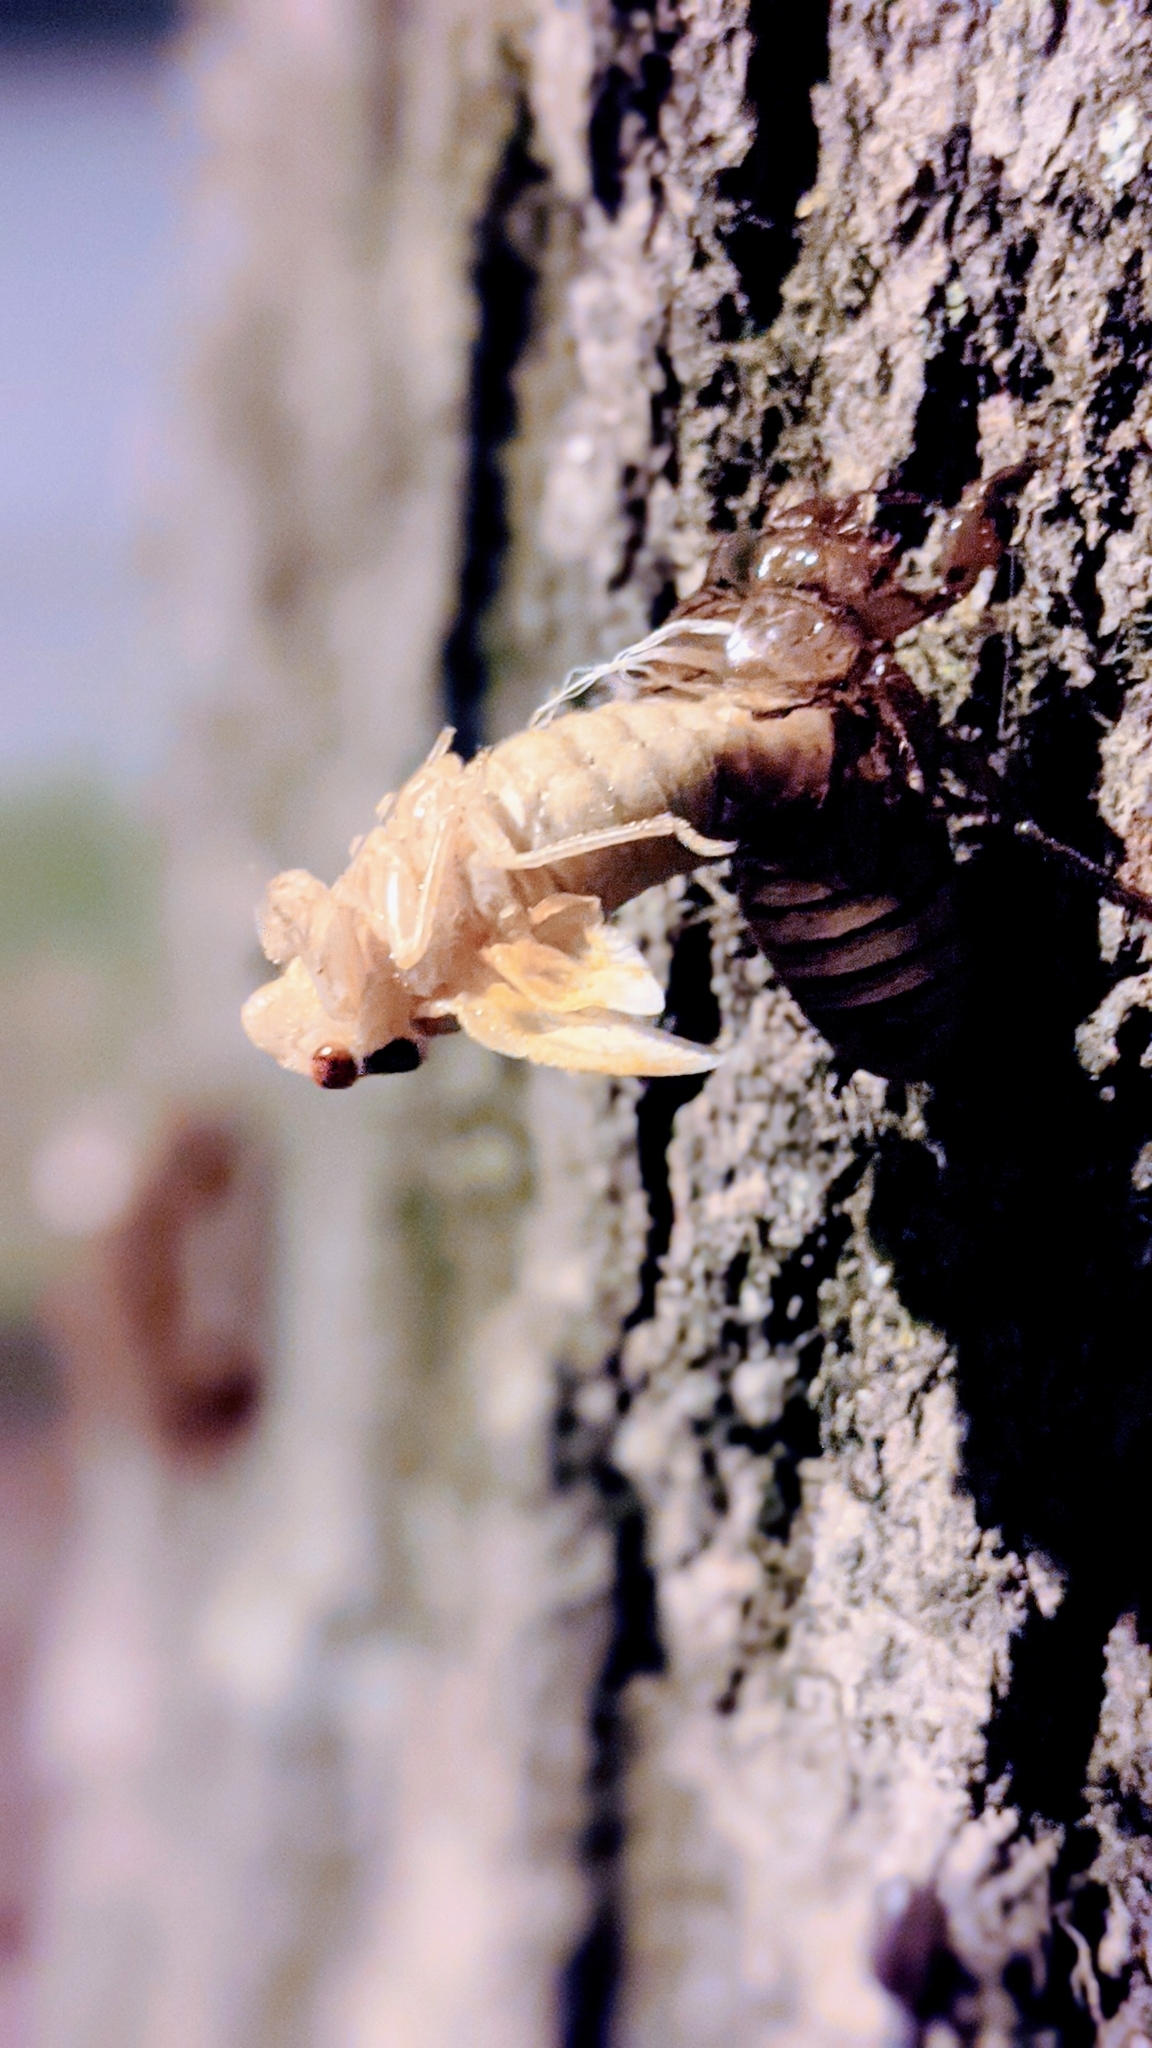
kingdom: Animalia
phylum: Arthropoda
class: Insecta
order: Hemiptera
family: Cicadidae
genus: Magicicada
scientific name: Magicicada
